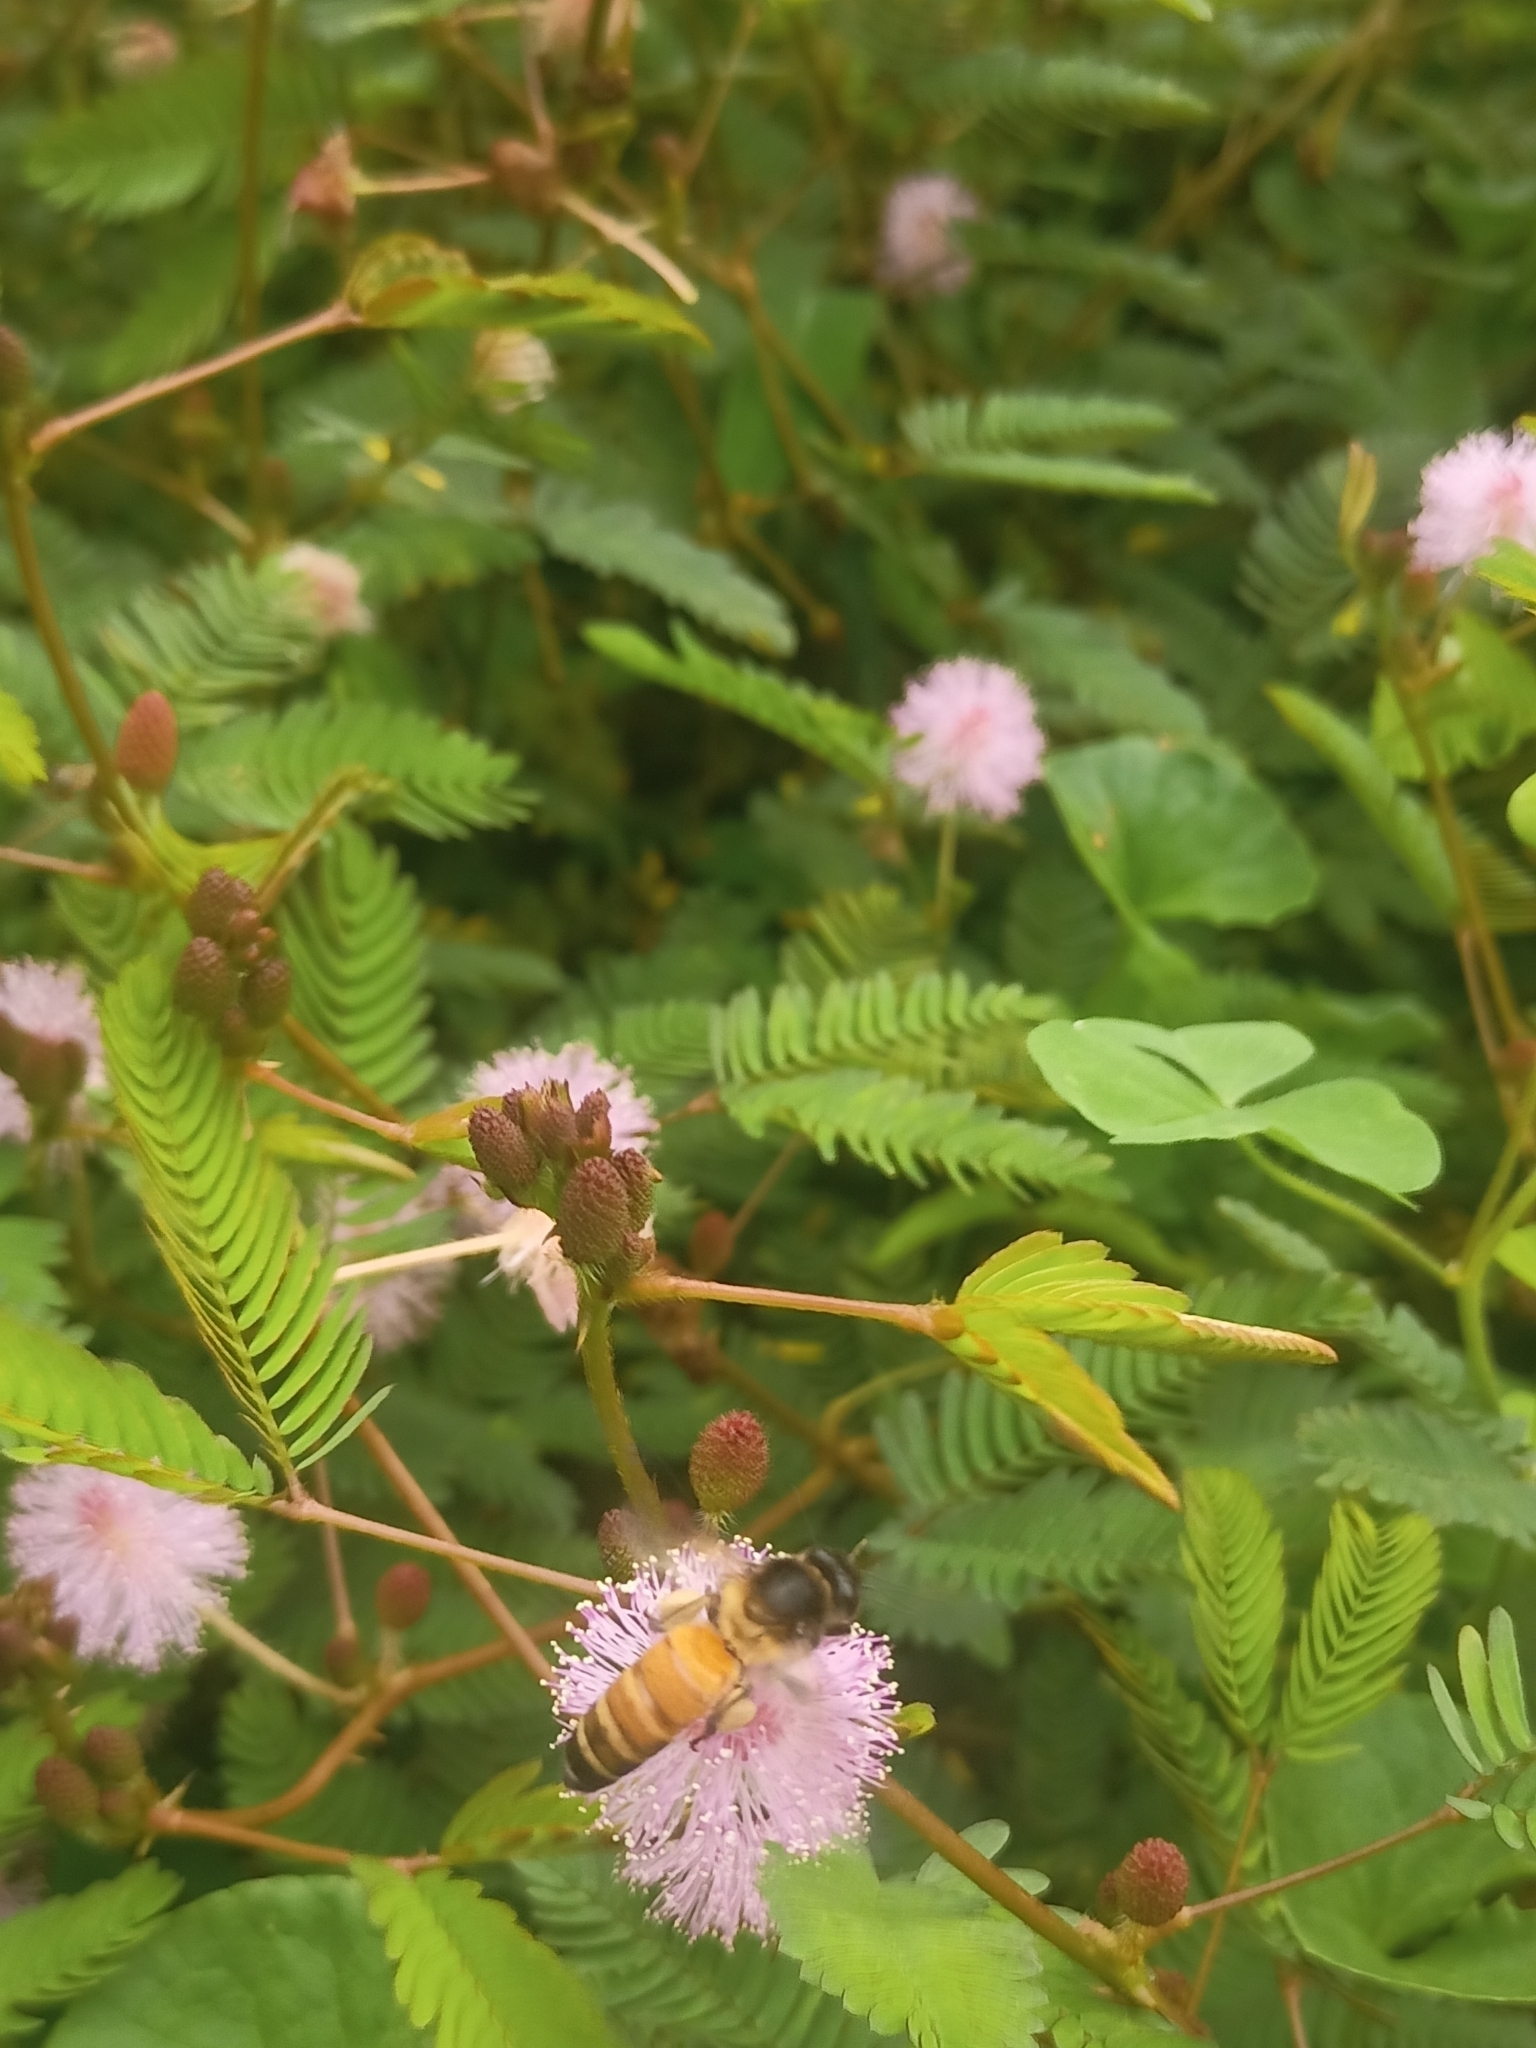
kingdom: Plantae
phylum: Tracheophyta
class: Magnoliopsida
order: Fabales
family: Fabaceae
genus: Mimosa
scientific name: Mimosa pudica
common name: Sensitive plant
